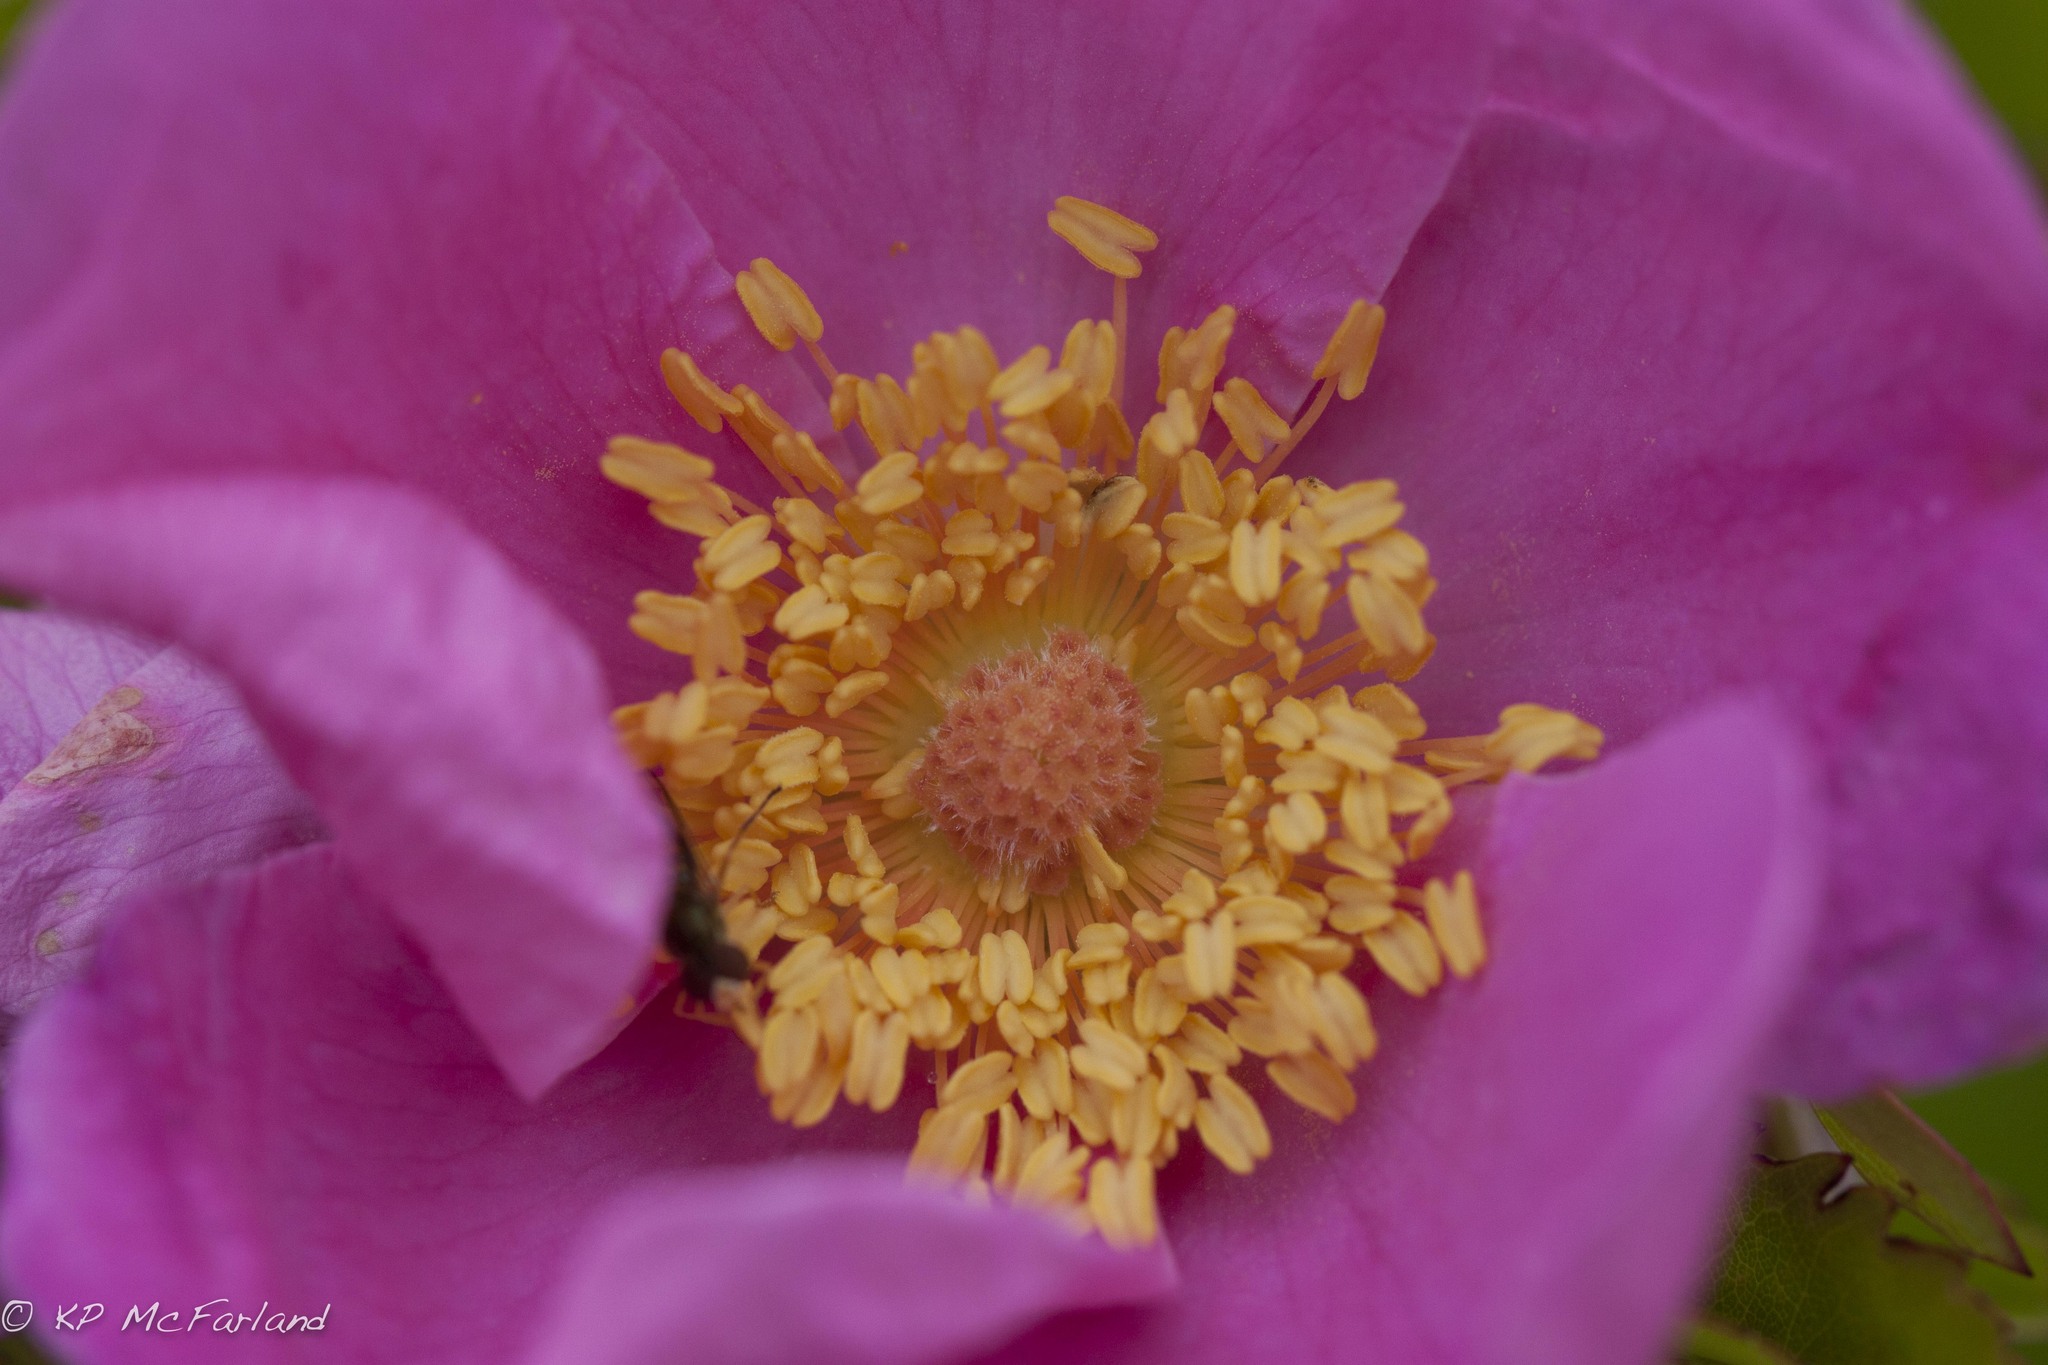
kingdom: Plantae
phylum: Tracheophyta
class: Magnoliopsida
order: Rosales
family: Rosaceae
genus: Rosa
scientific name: Rosa rugosa
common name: Japanese rose
